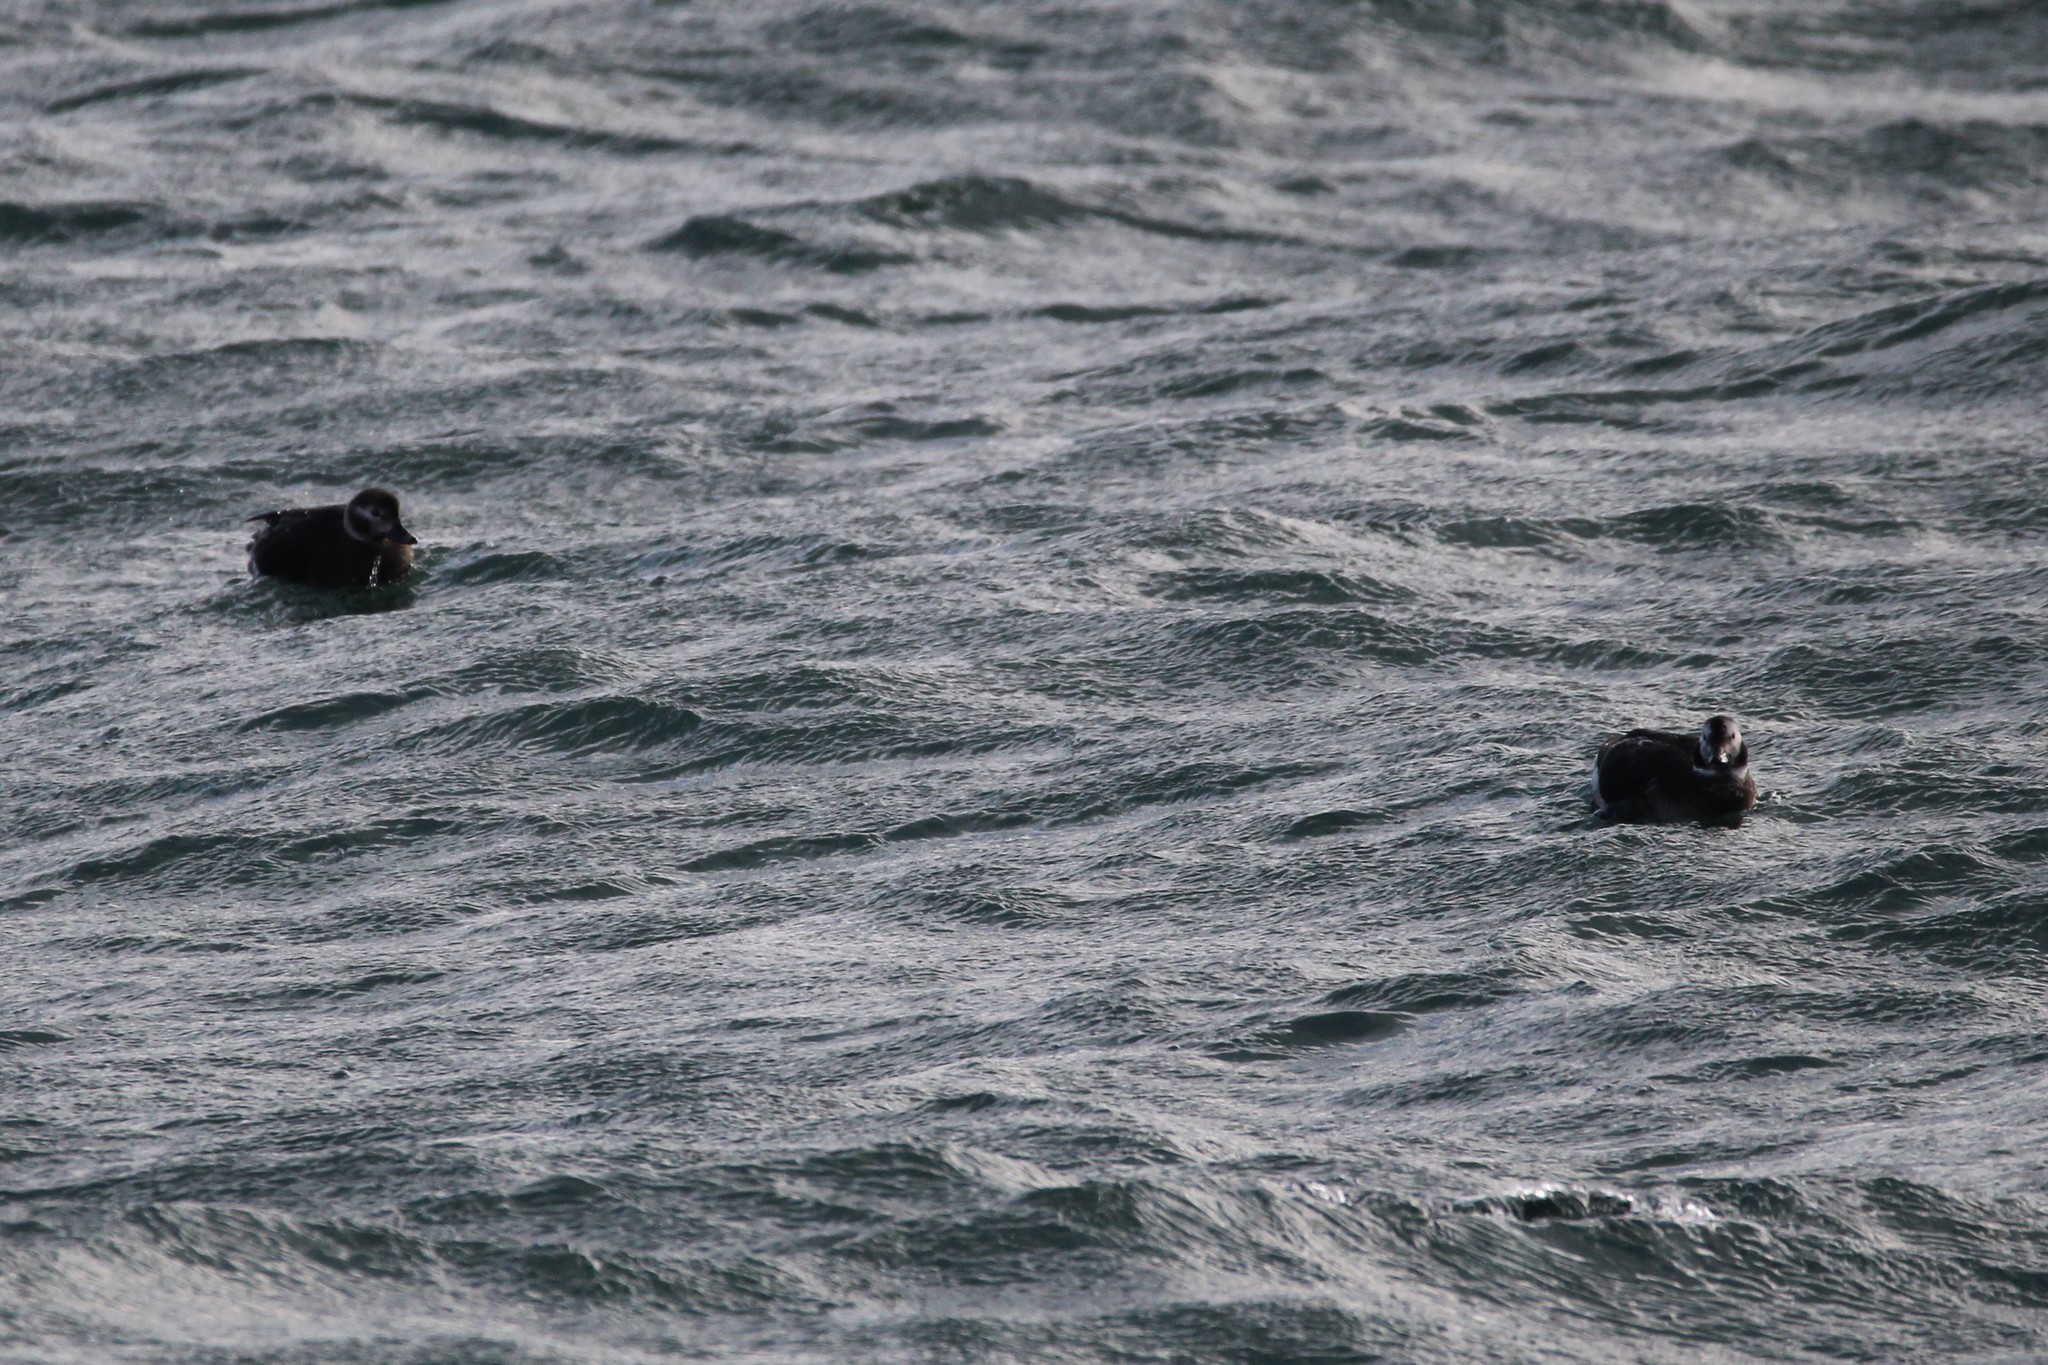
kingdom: Animalia
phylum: Chordata
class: Aves
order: Anseriformes
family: Anatidae
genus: Clangula
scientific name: Clangula hyemalis
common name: Long-tailed duck
